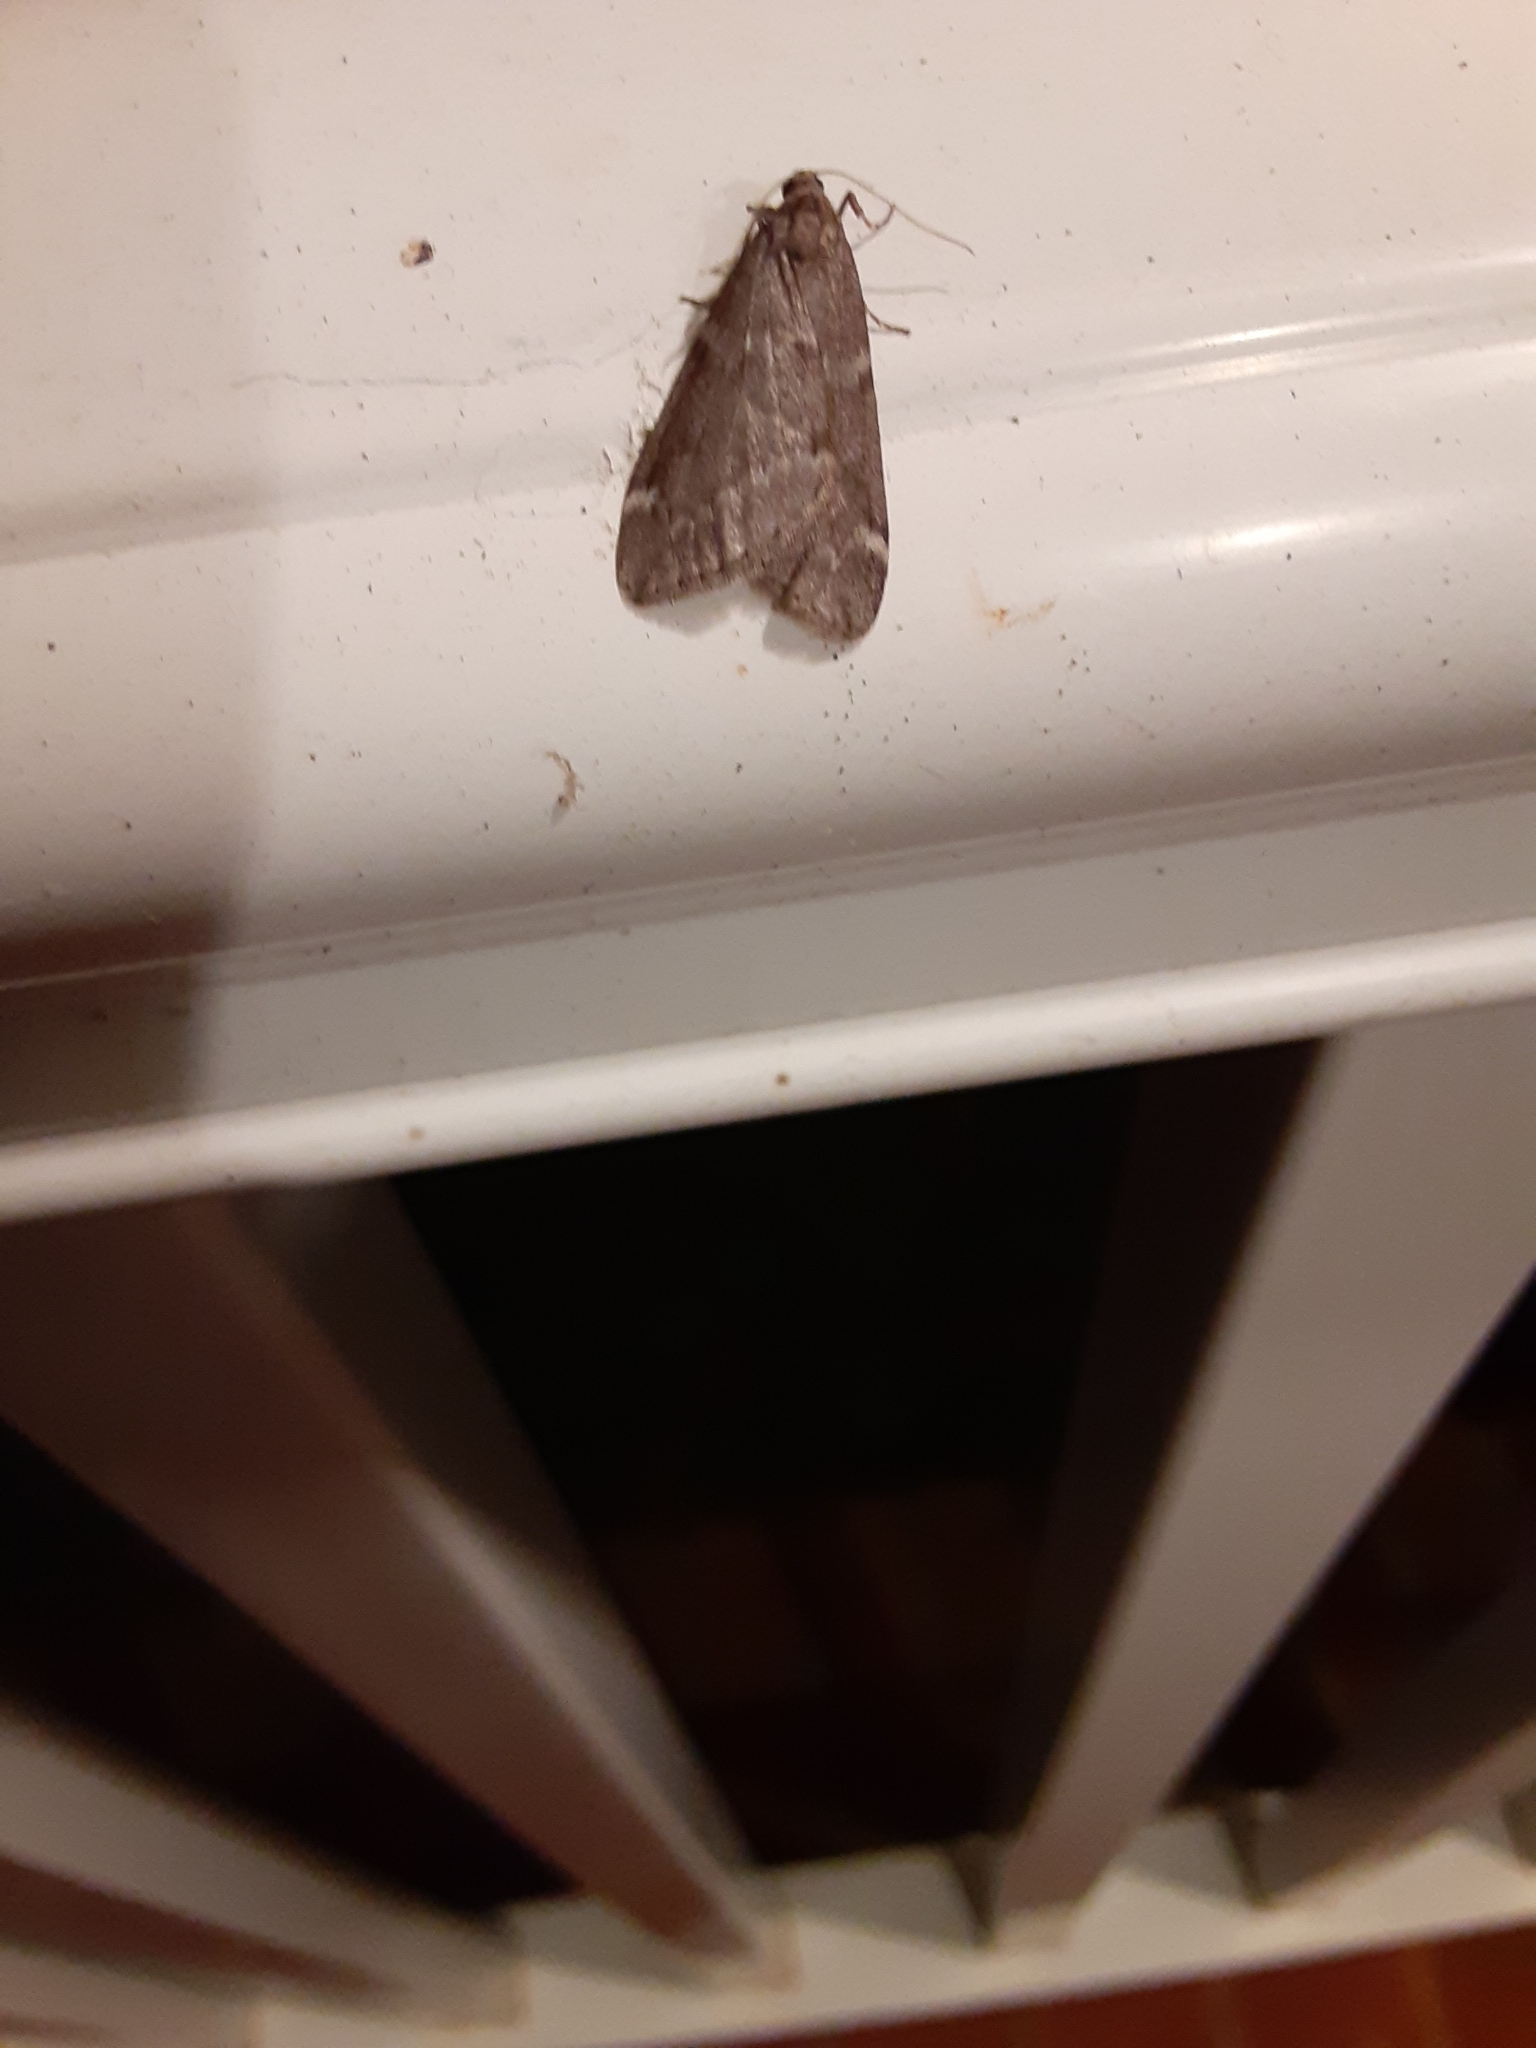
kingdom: Animalia
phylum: Arthropoda
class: Insecta
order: Lepidoptera
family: Geometridae
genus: Alsophila
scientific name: Alsophila pometaria
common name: Fall cankerworm
